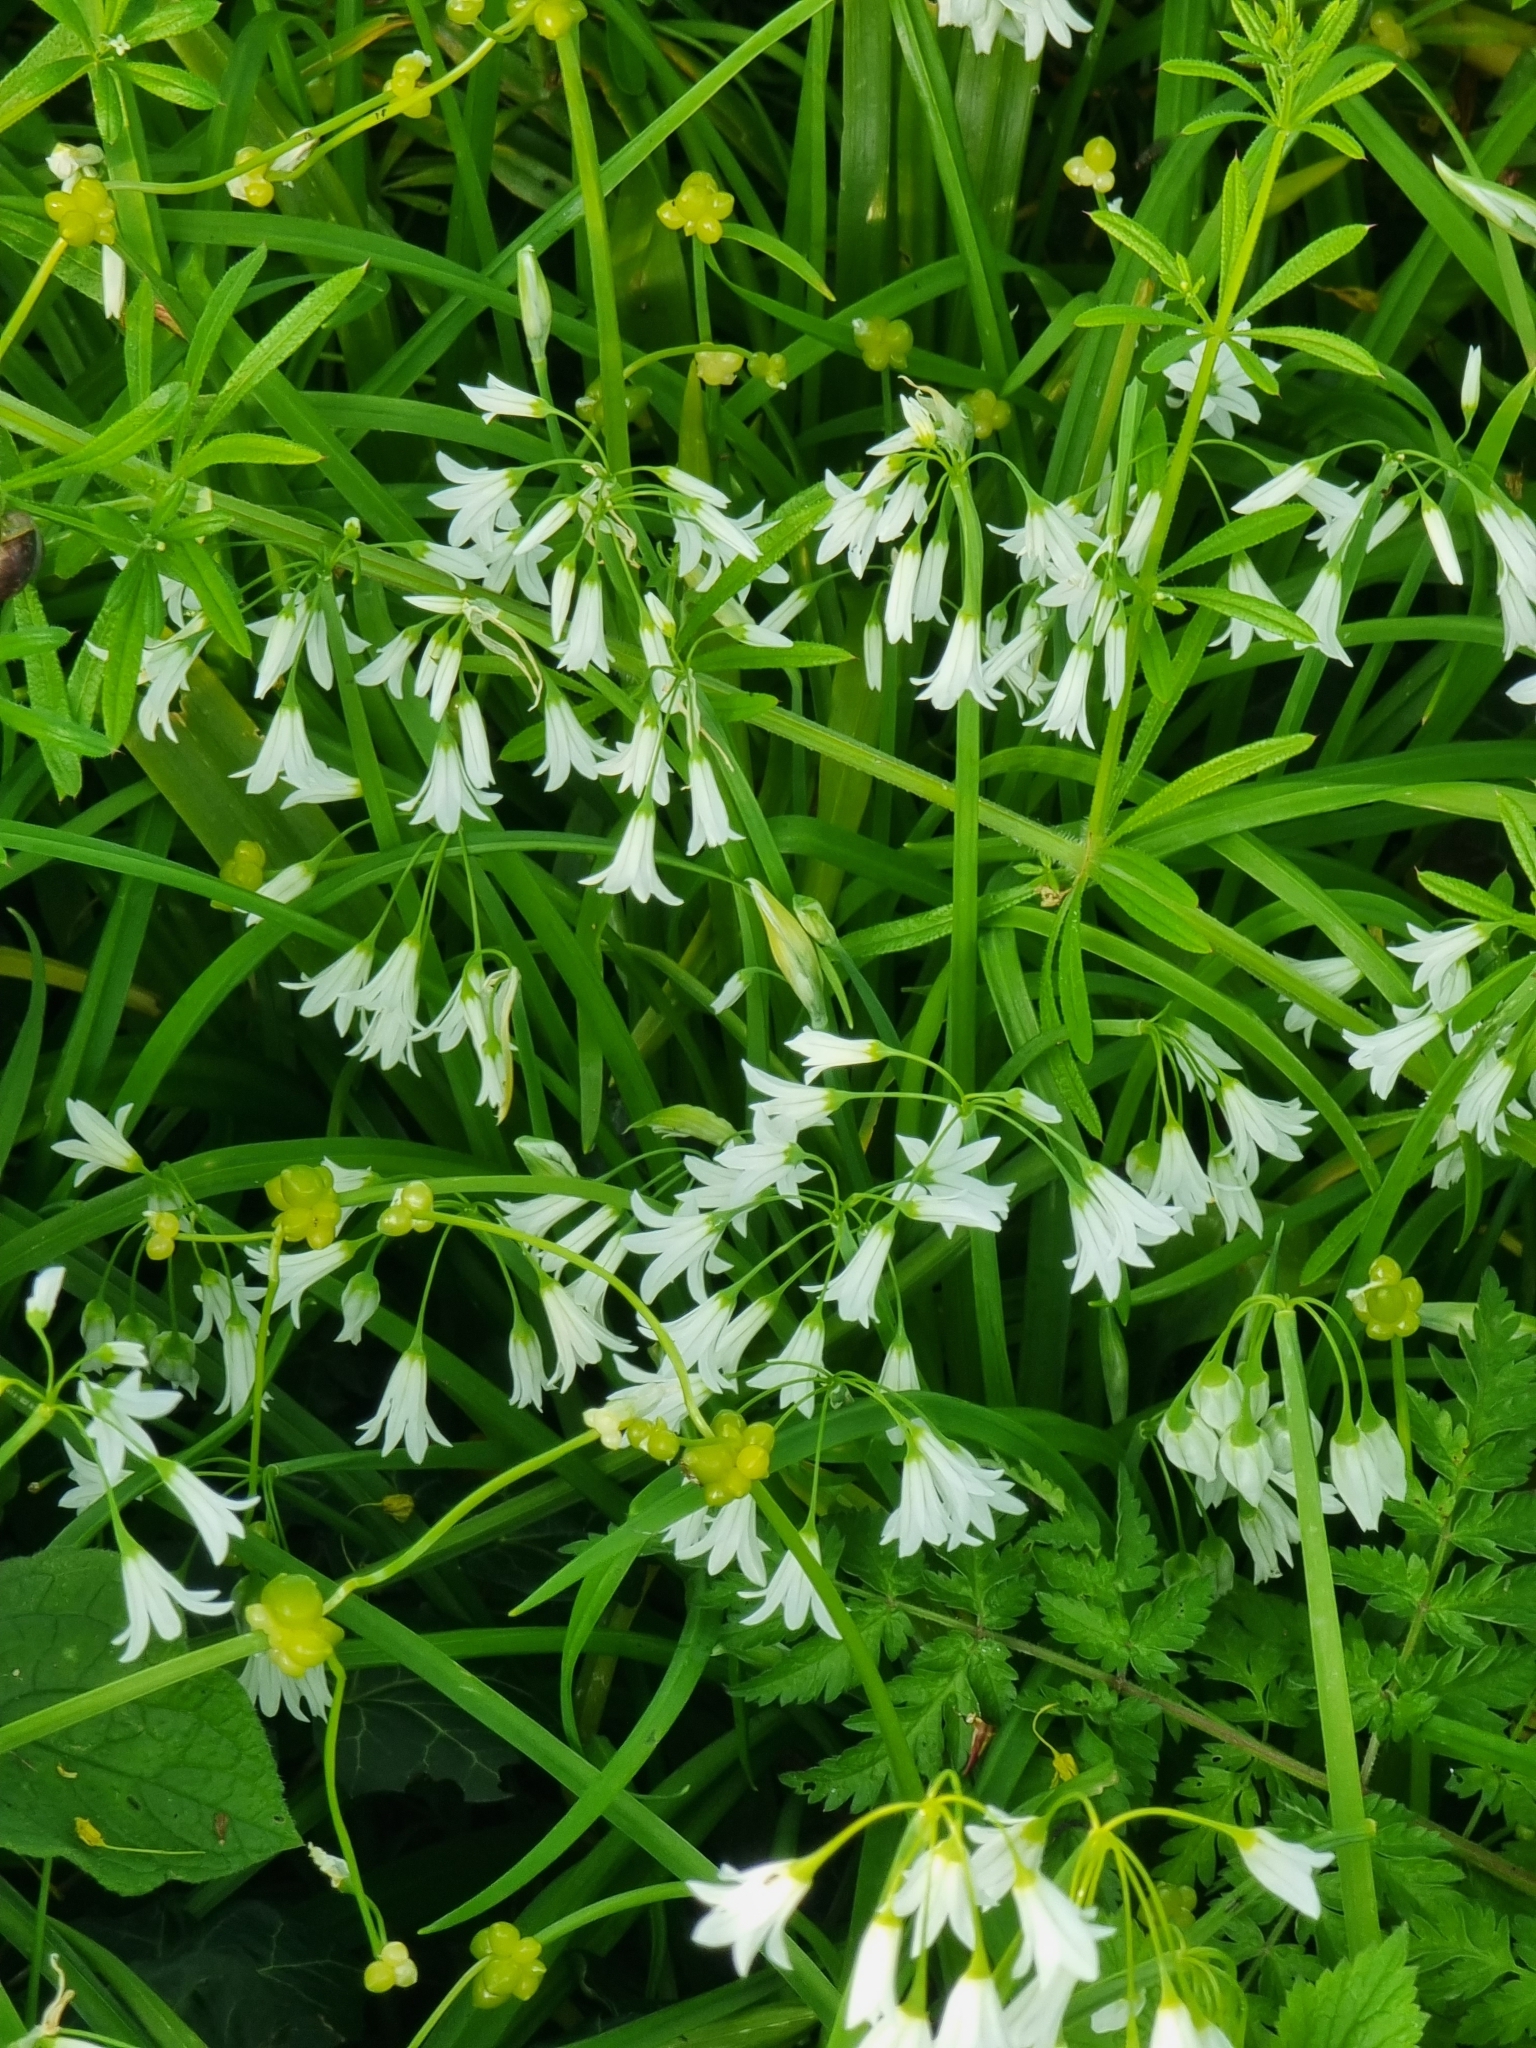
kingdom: Plantae
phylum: Tracheophyta
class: Liliopsida
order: Asparagales
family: Amaryllidaceae
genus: Allium
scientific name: Allium triquetrum
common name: Three-cornered garlic
